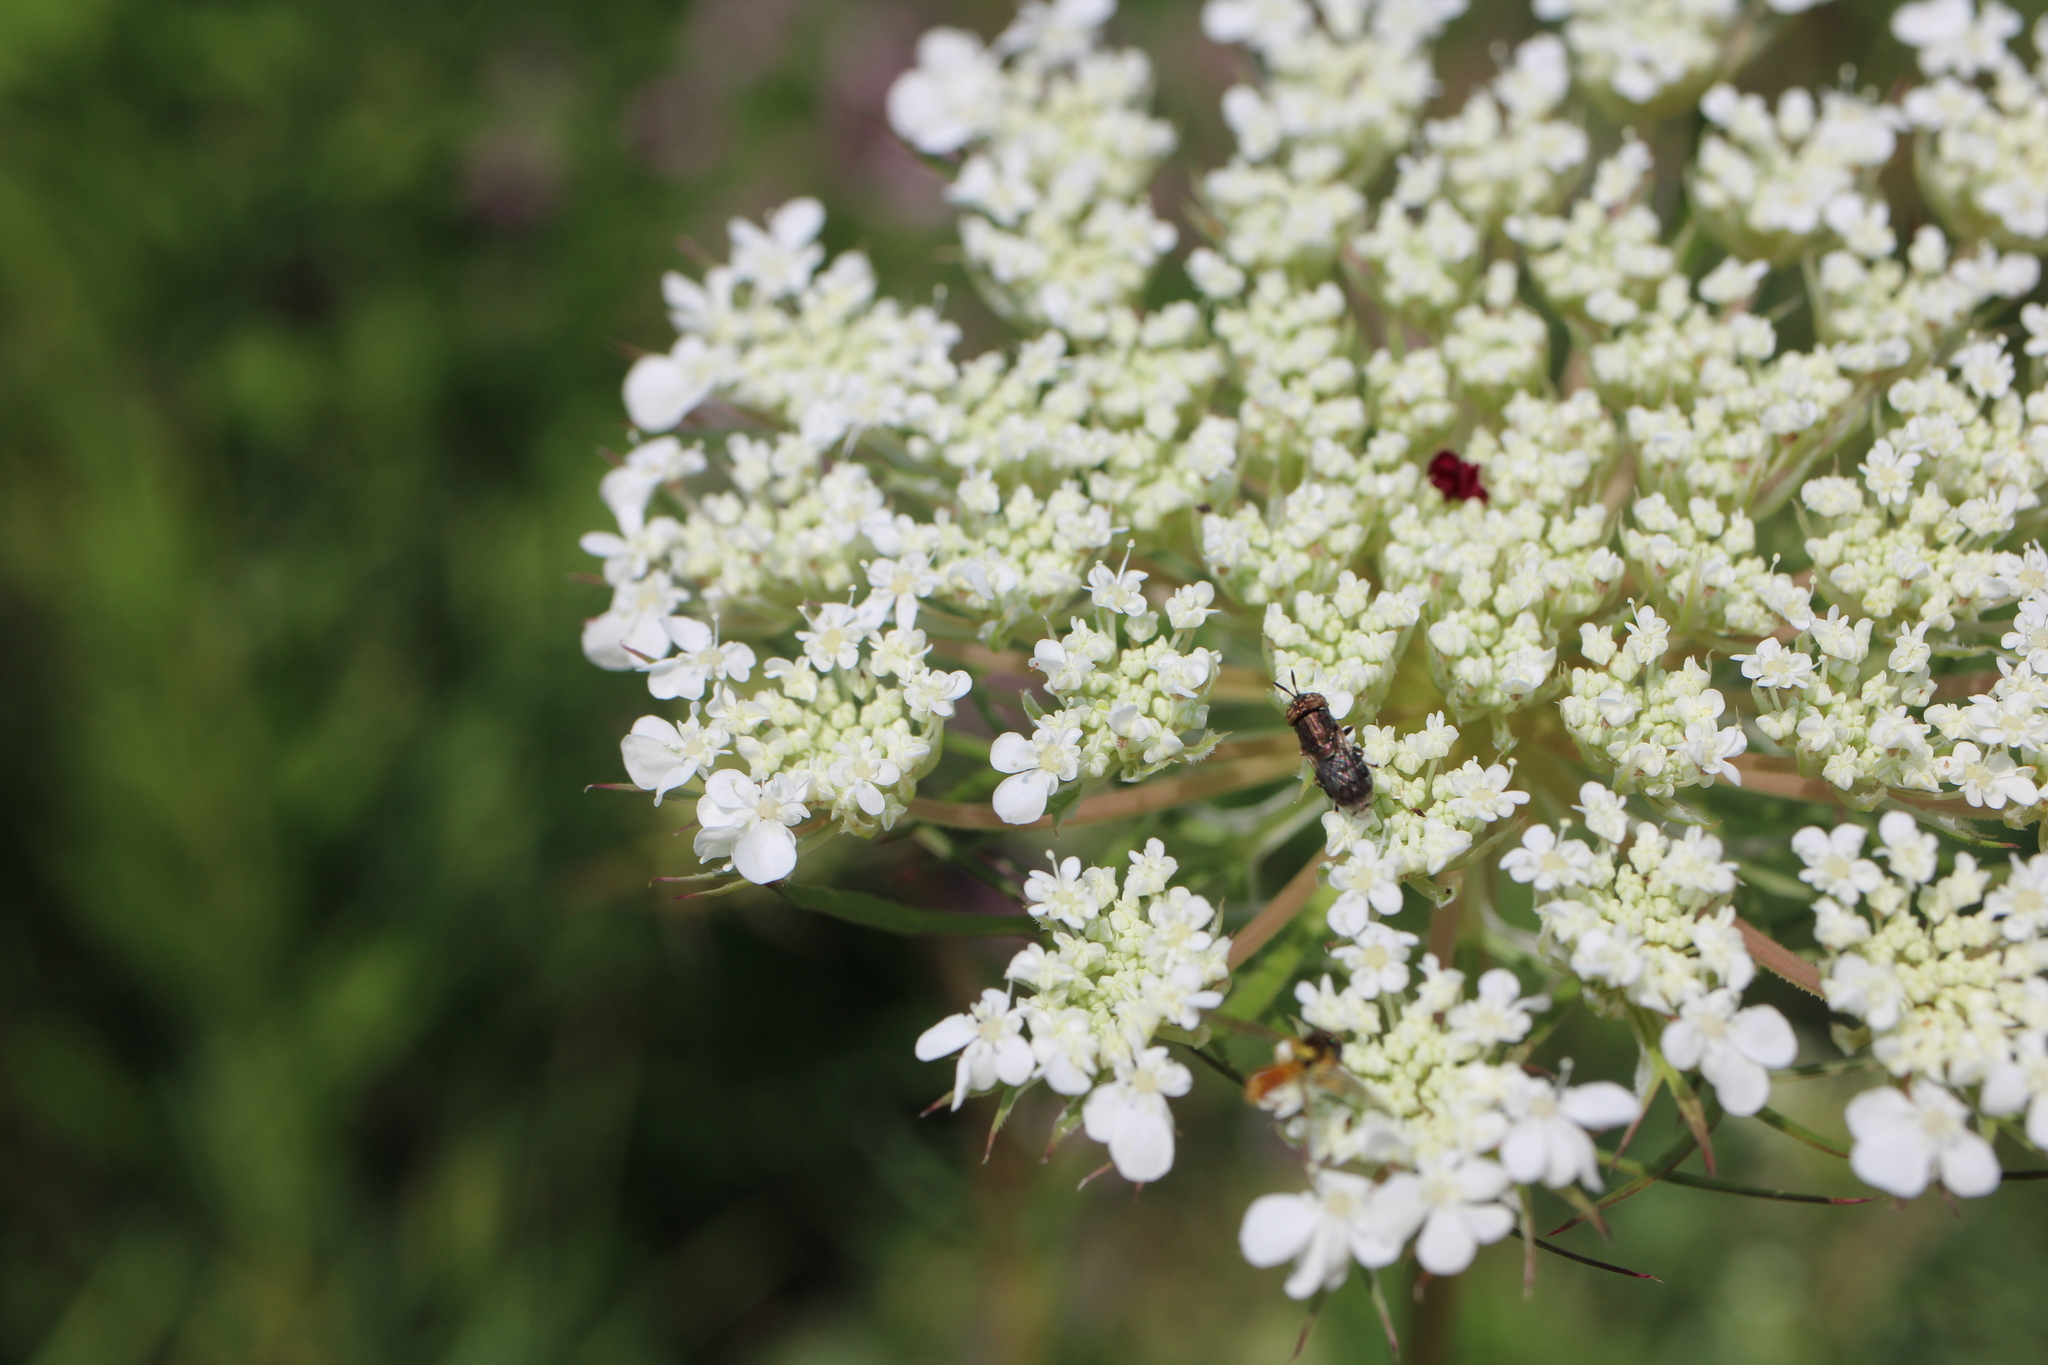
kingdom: Animalia
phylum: Arthropoda
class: Insecta
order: Diptera
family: Syrphidae
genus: Orthonevra
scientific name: Orthonevra nitida
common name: Wavy mucksucker
